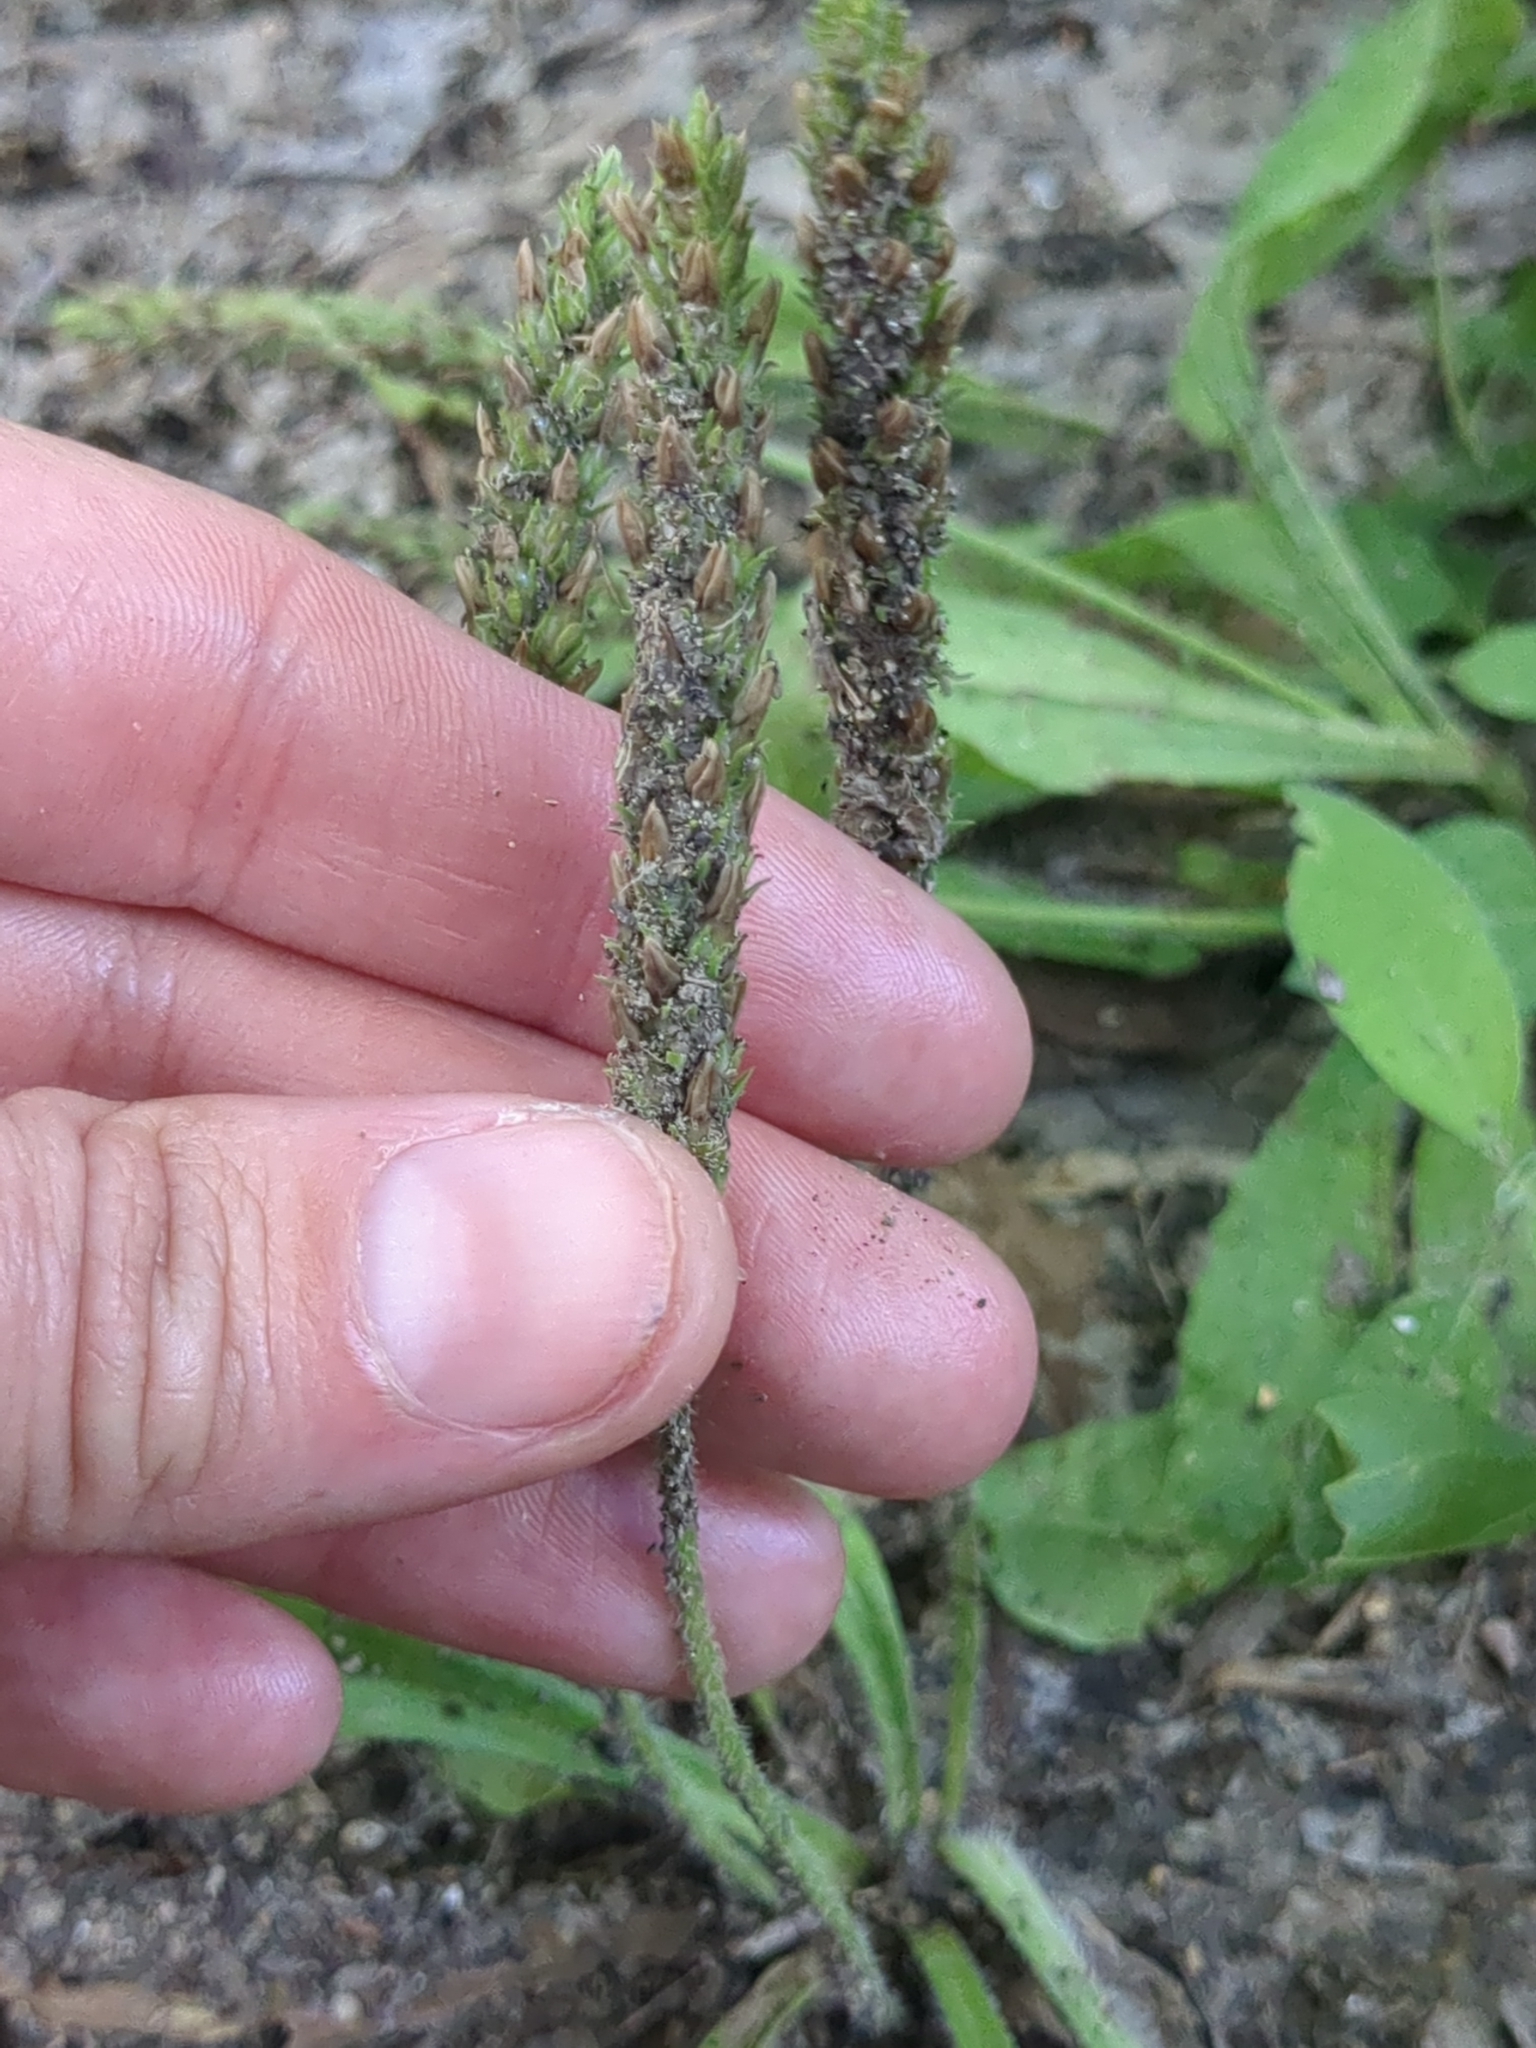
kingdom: Plantae
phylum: Tracheophyta
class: Magnoliopsida
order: Lamiales
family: Plantaginaceae
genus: Plantago
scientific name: Plantago rhodosperma
